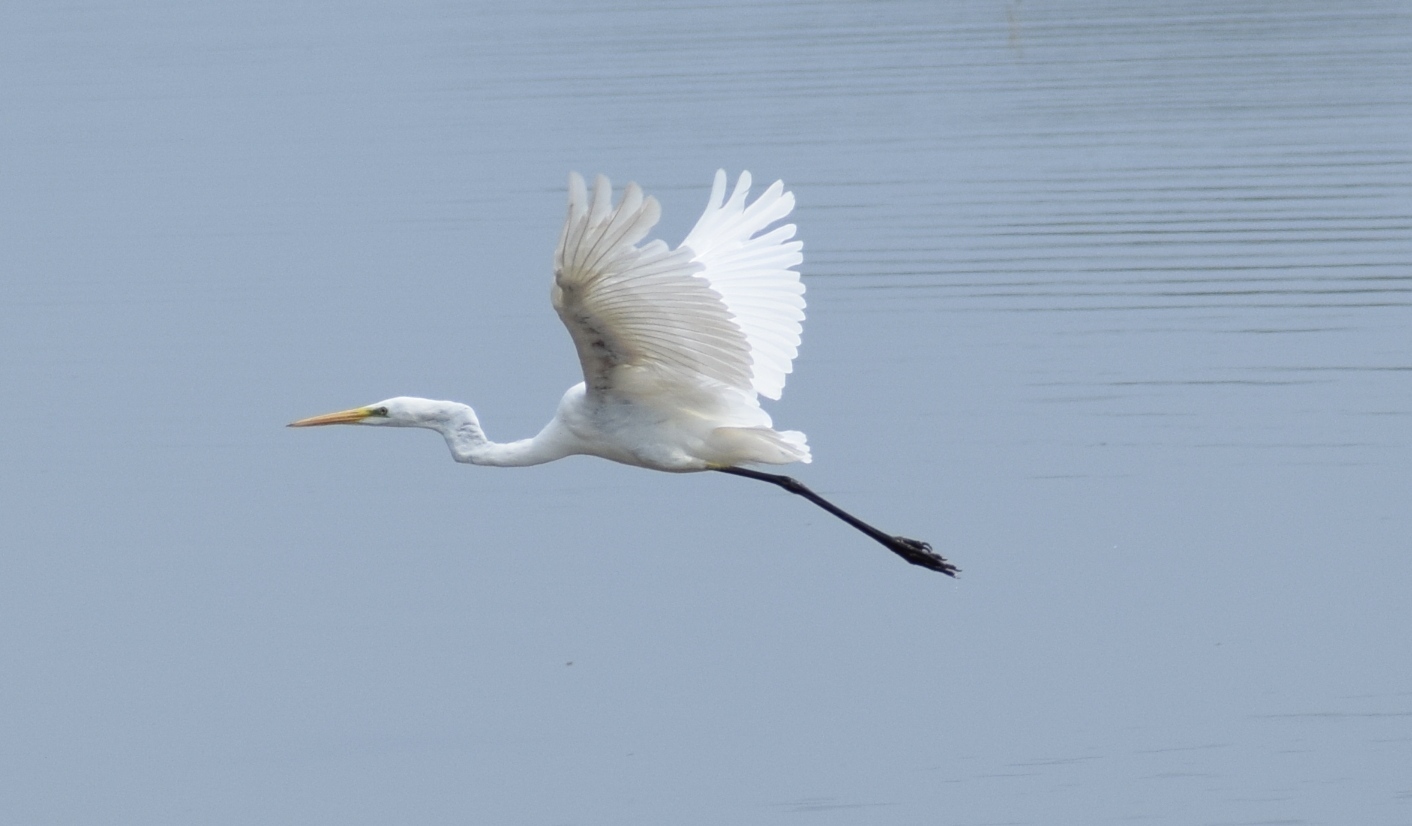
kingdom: Animalia
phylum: Chordata
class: Aves
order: Pelecaniformes
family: Ardeidae
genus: Ardea
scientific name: Ardea alba
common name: Great egret
